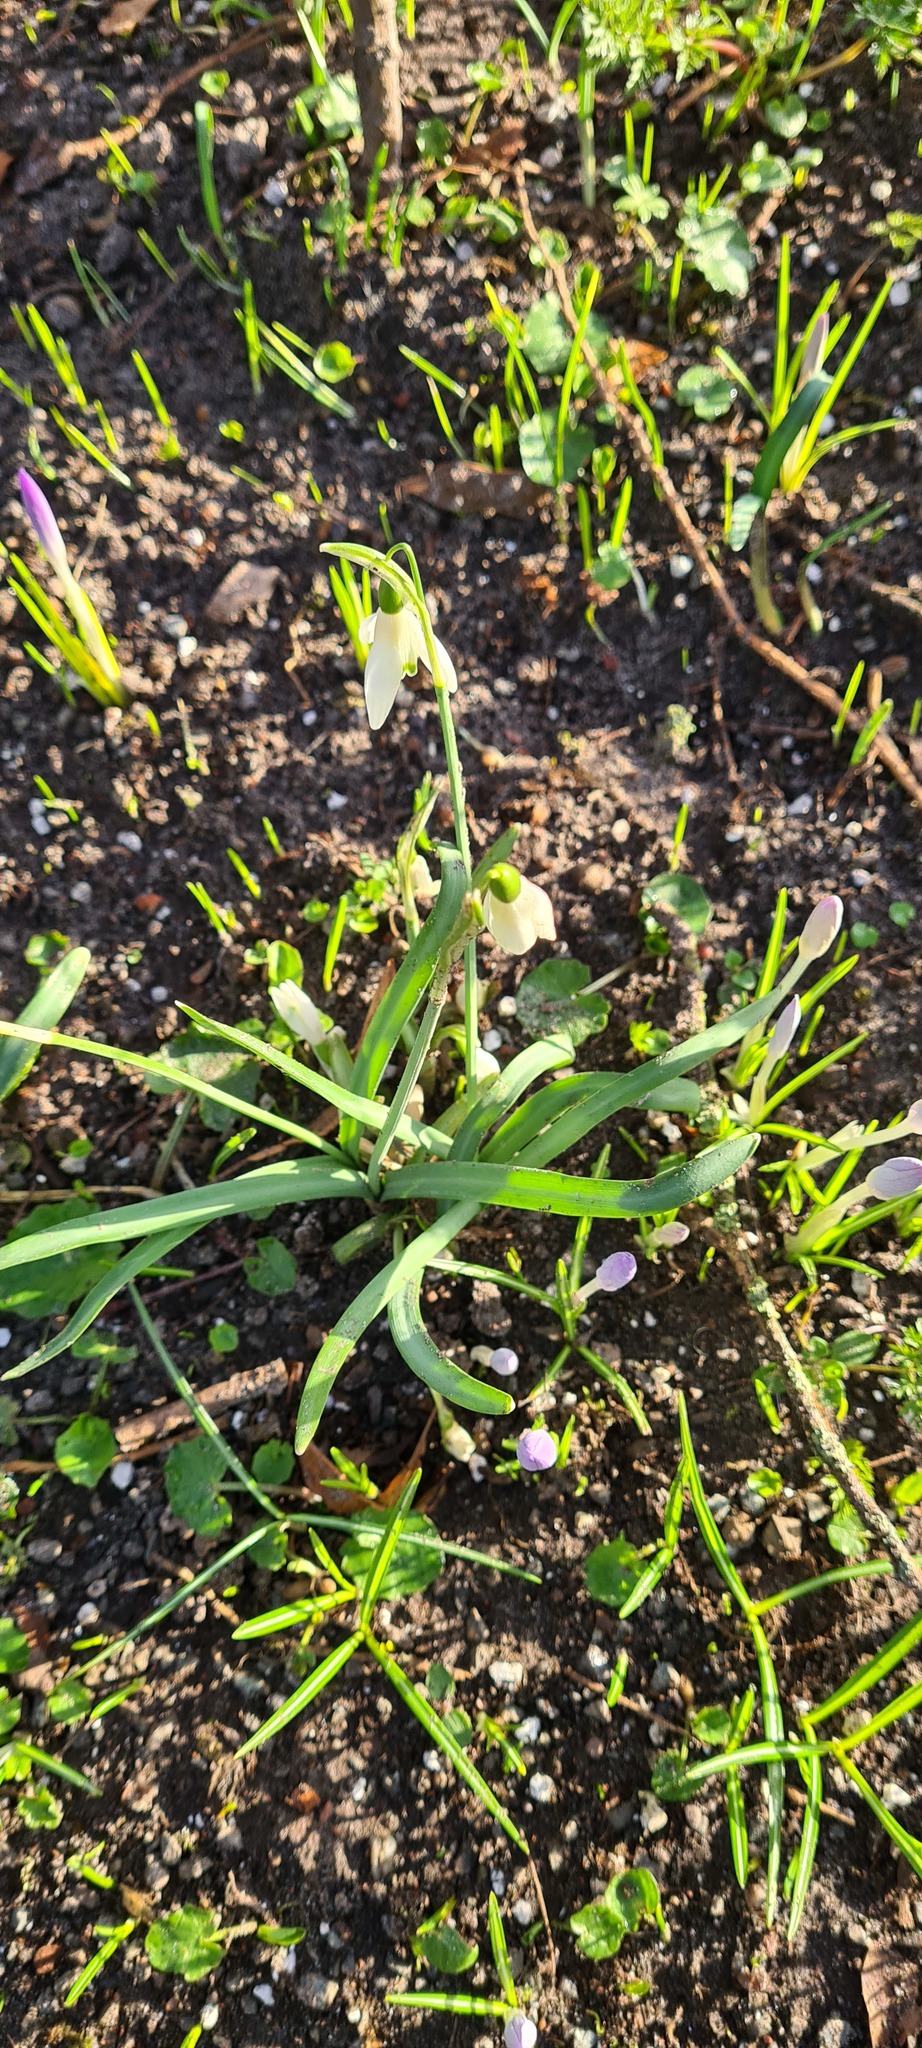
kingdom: Plantae
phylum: Tracheophyta
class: Liliopsida
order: Asparagales
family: Amaryllidaceae
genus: Galanthus
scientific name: Galanthus nivalis
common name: Snowdrop
